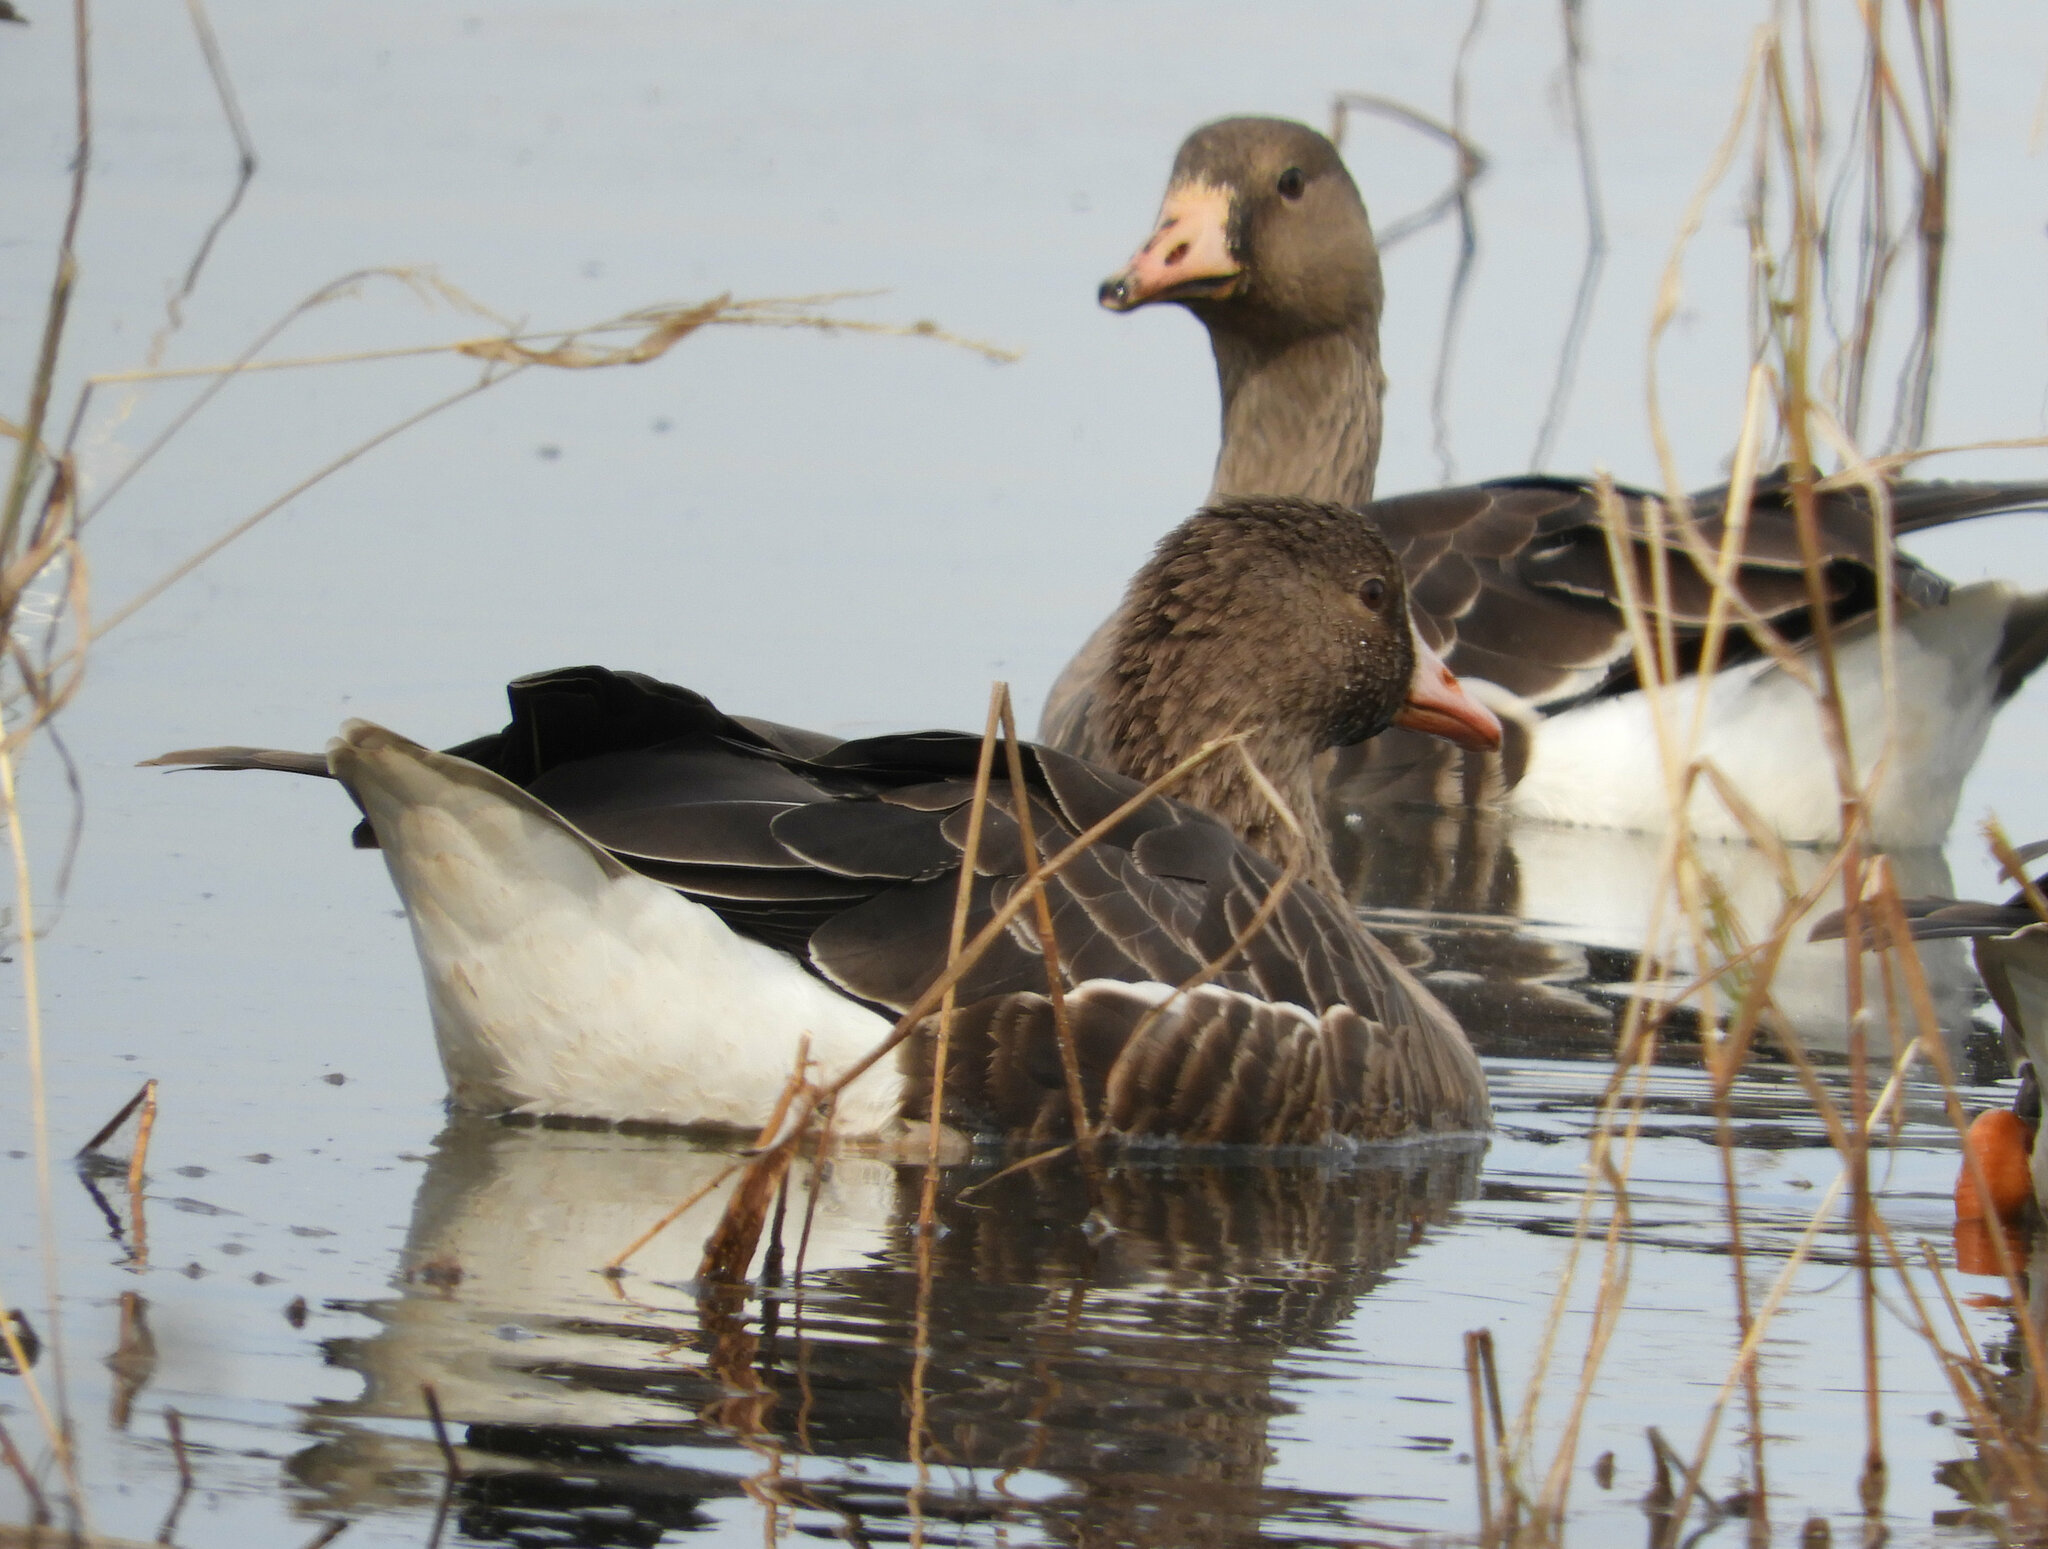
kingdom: Animalia
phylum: Chordata
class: Aves
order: Anseriformes
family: Anatidae
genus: Anser
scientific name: Anser albifrons
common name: Greater white-fronted goose
